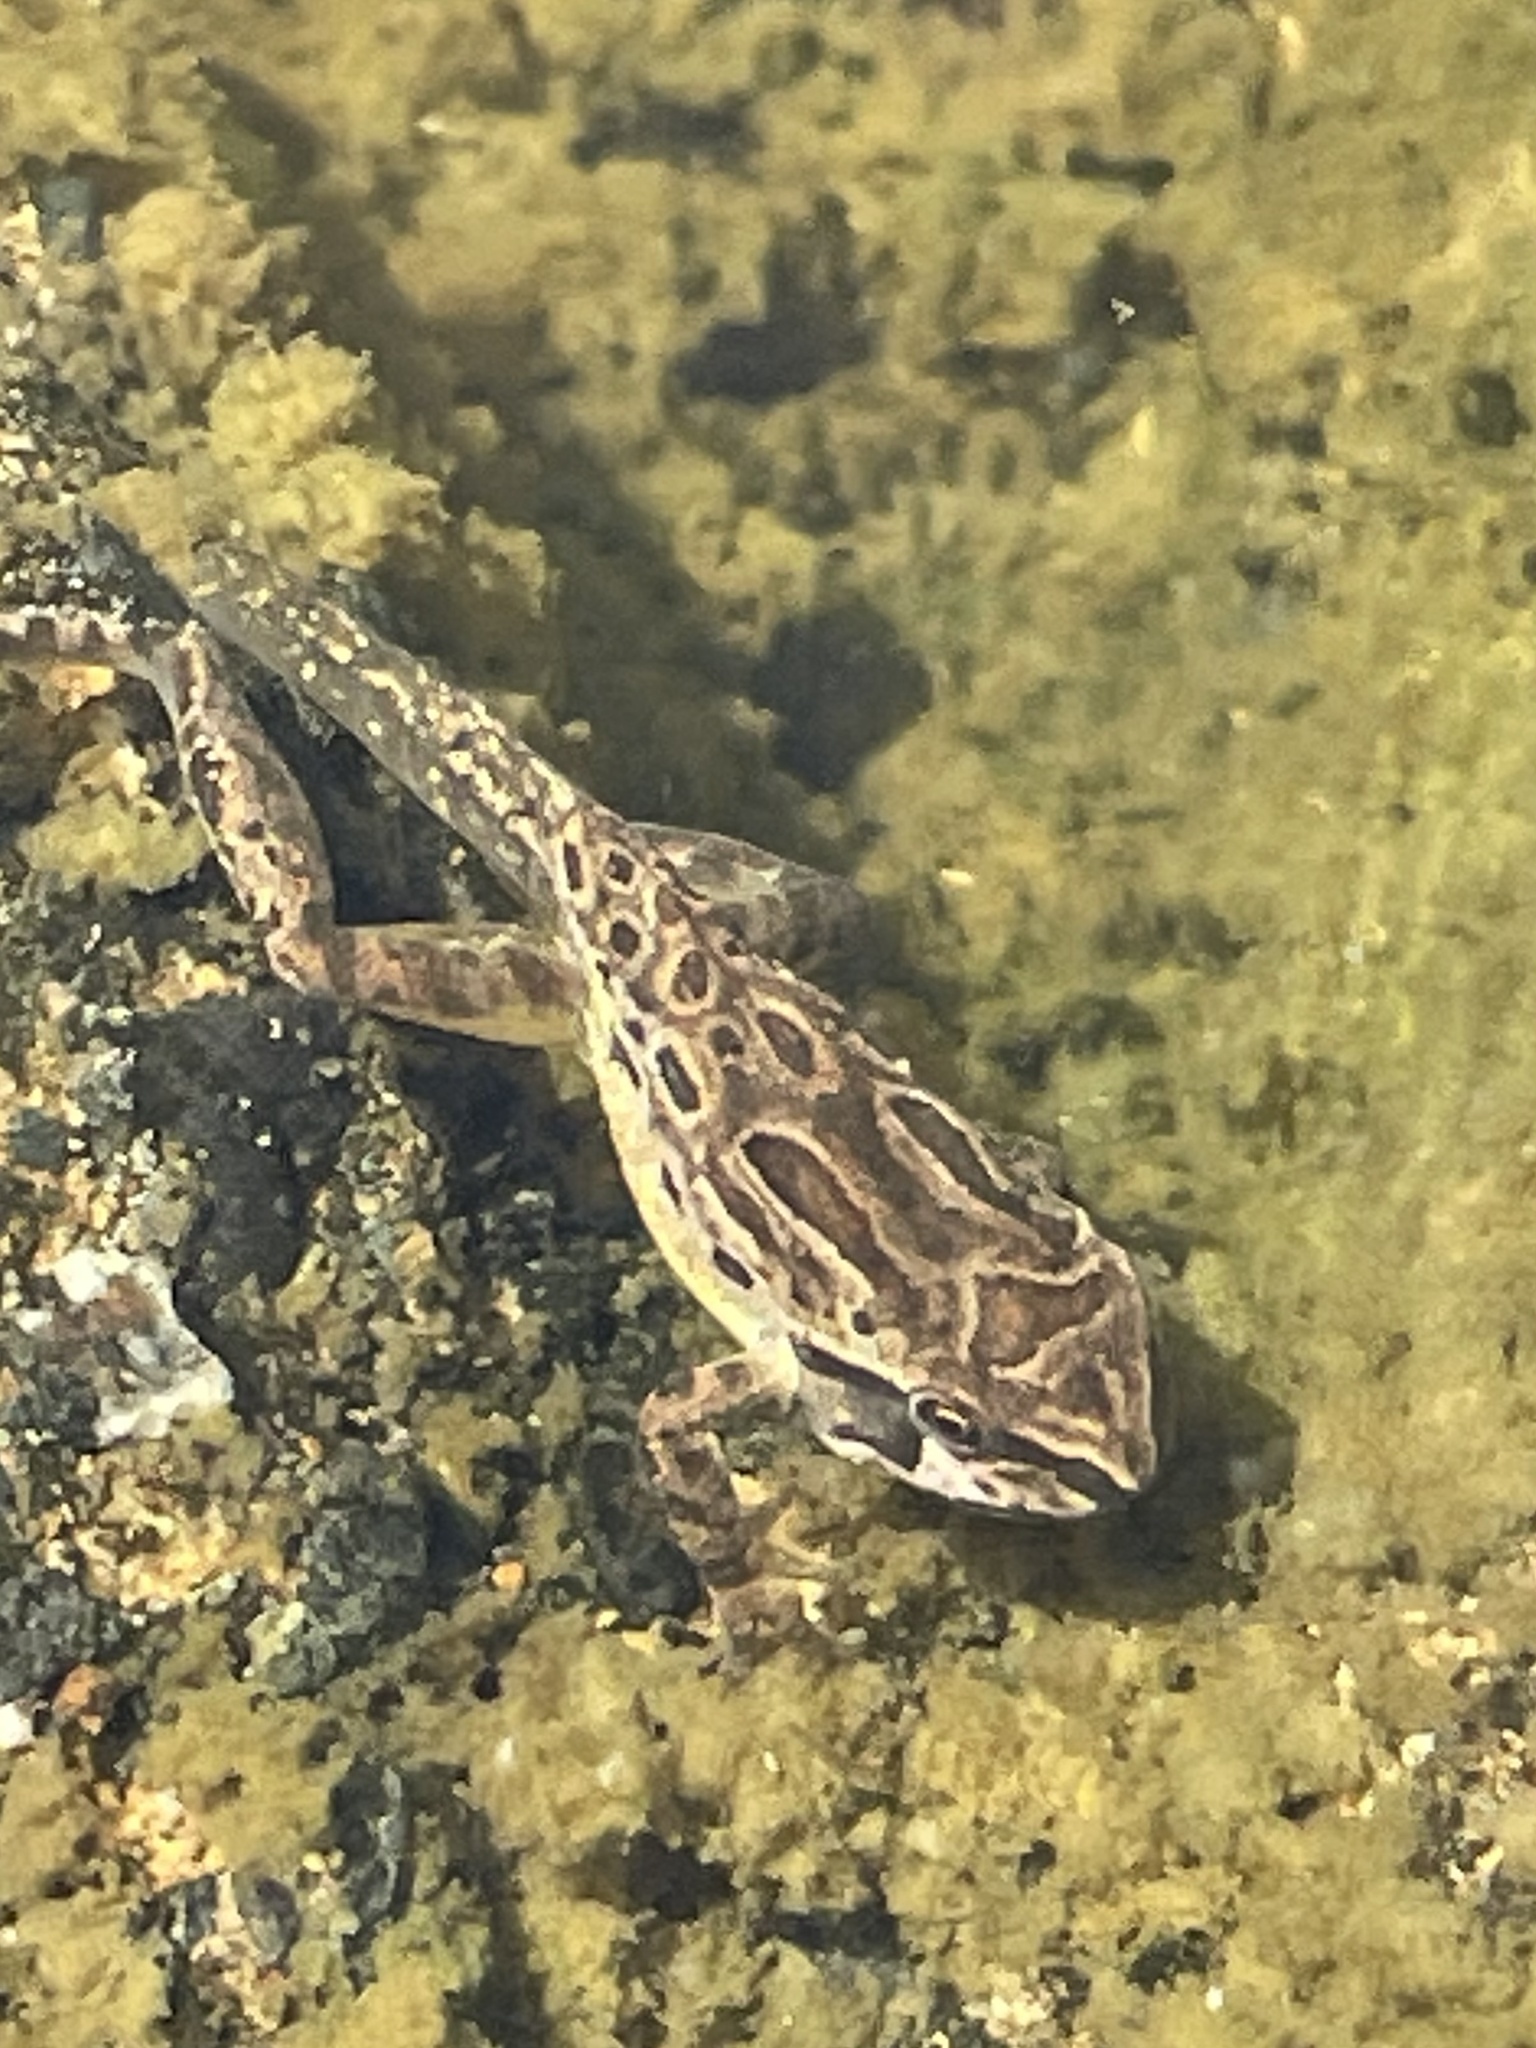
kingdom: Animalia
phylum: Chordata
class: Amphibia
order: Anura
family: Hylidae
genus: Pseudacris
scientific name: Pseudacris regilla
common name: Pacific chorus frog
